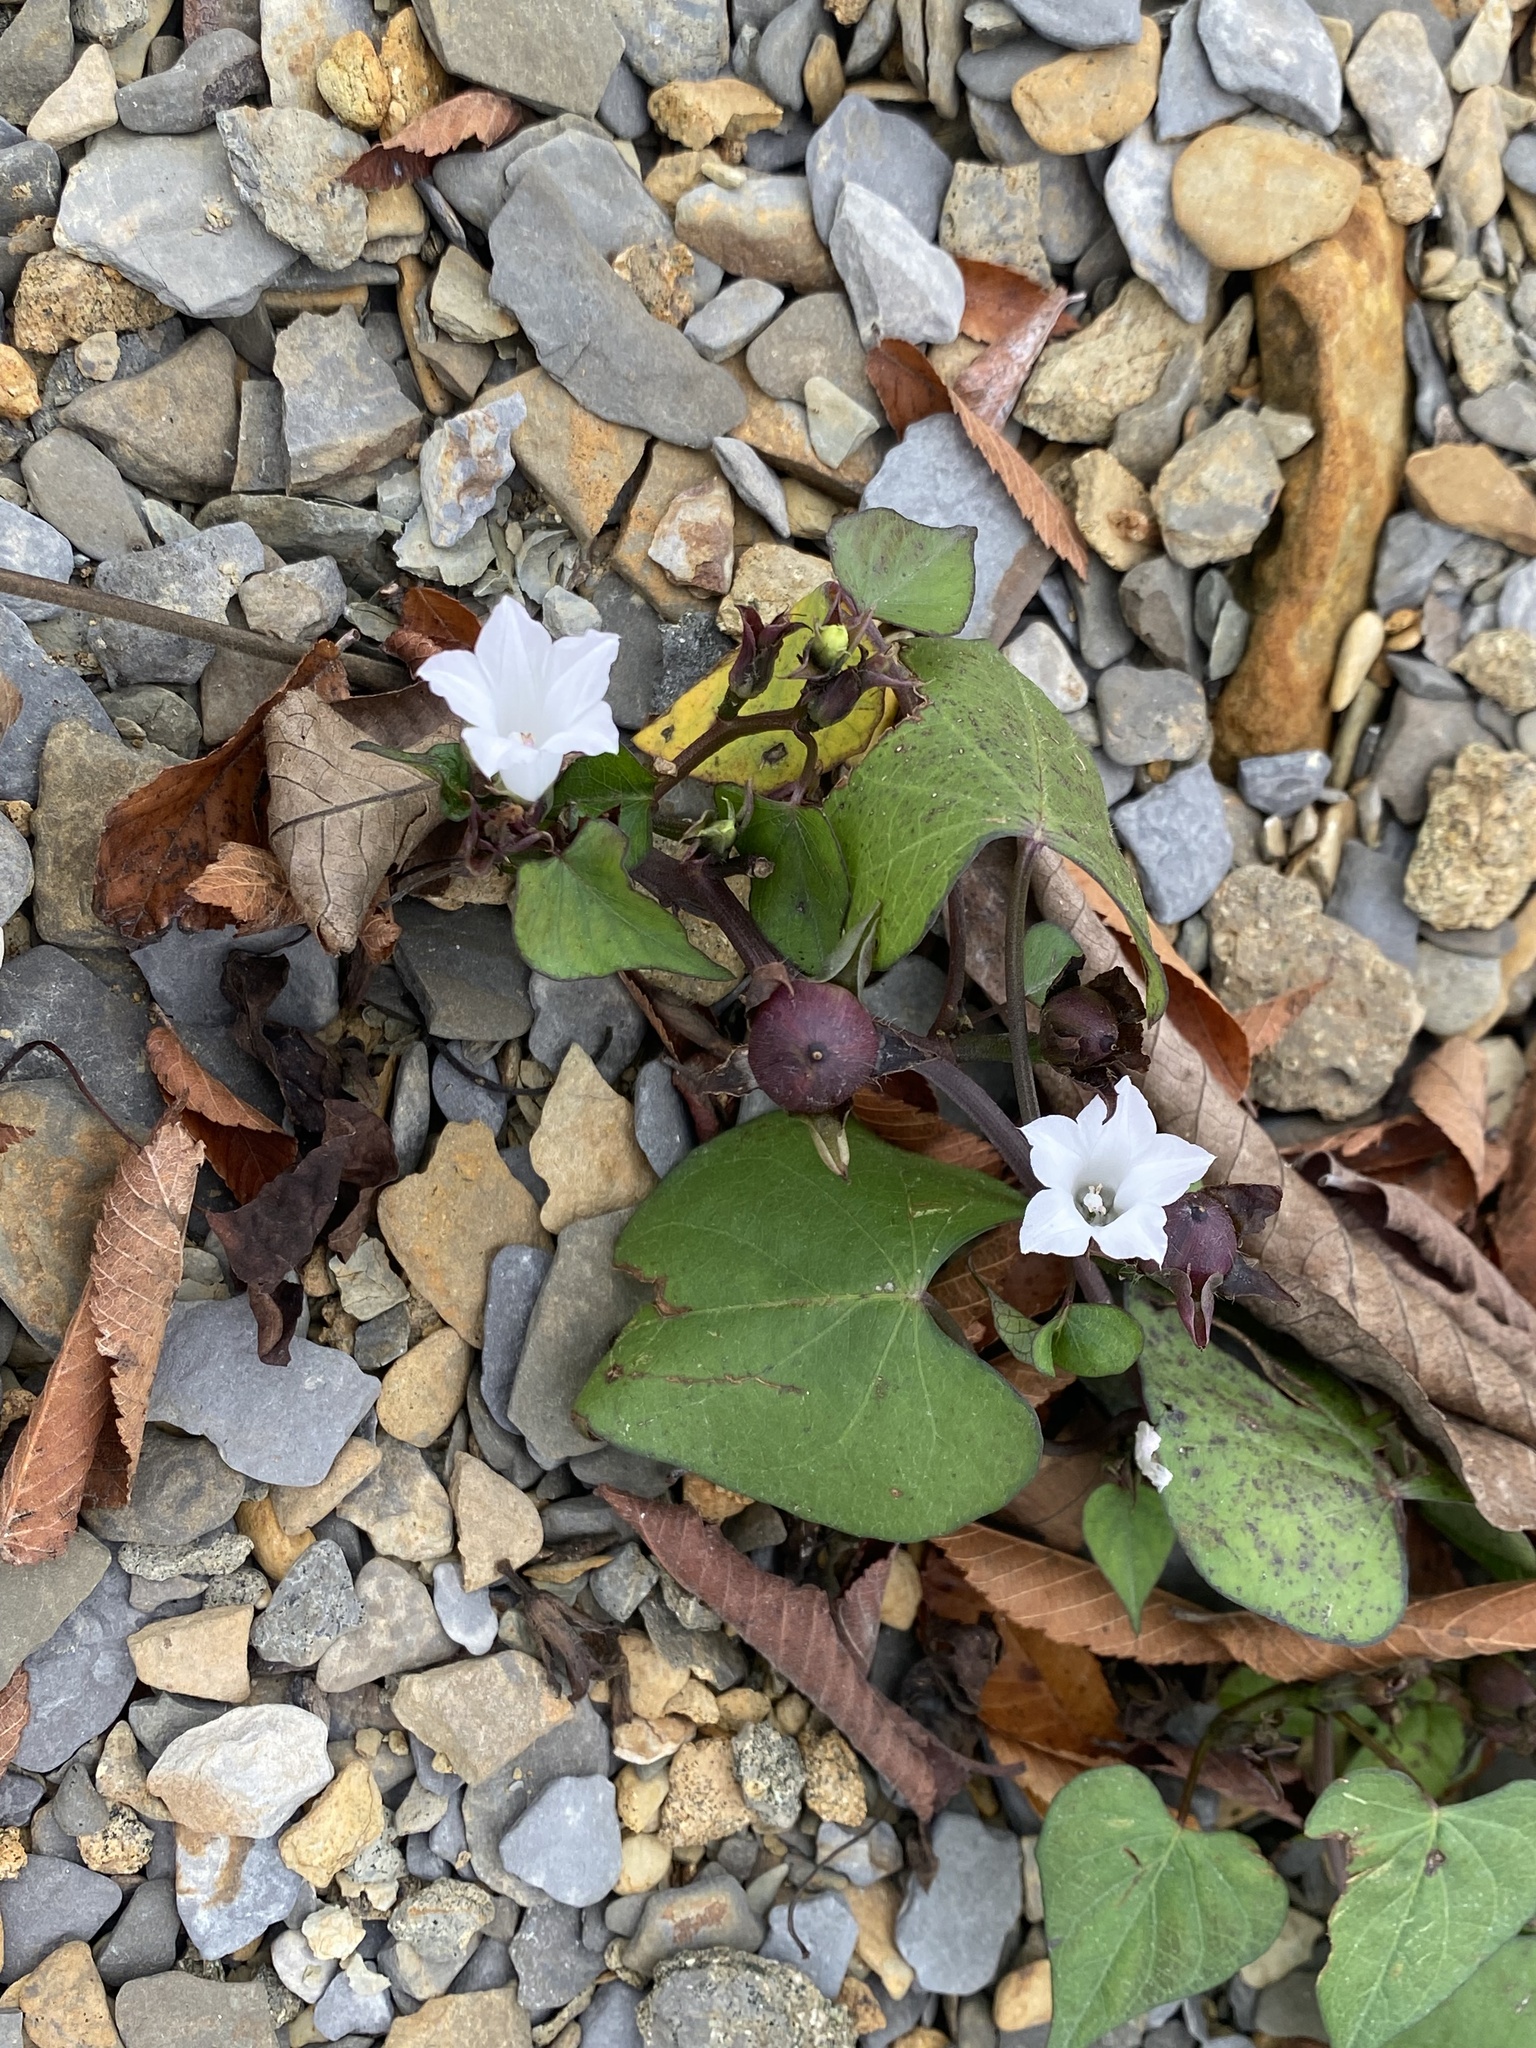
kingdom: Plantae
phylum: Tracheophyta
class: Magnoliopsida
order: Solanales
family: Convolvulaceae
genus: Ipomoea
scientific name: Ipomoea lacunosa
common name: White morning-glory
